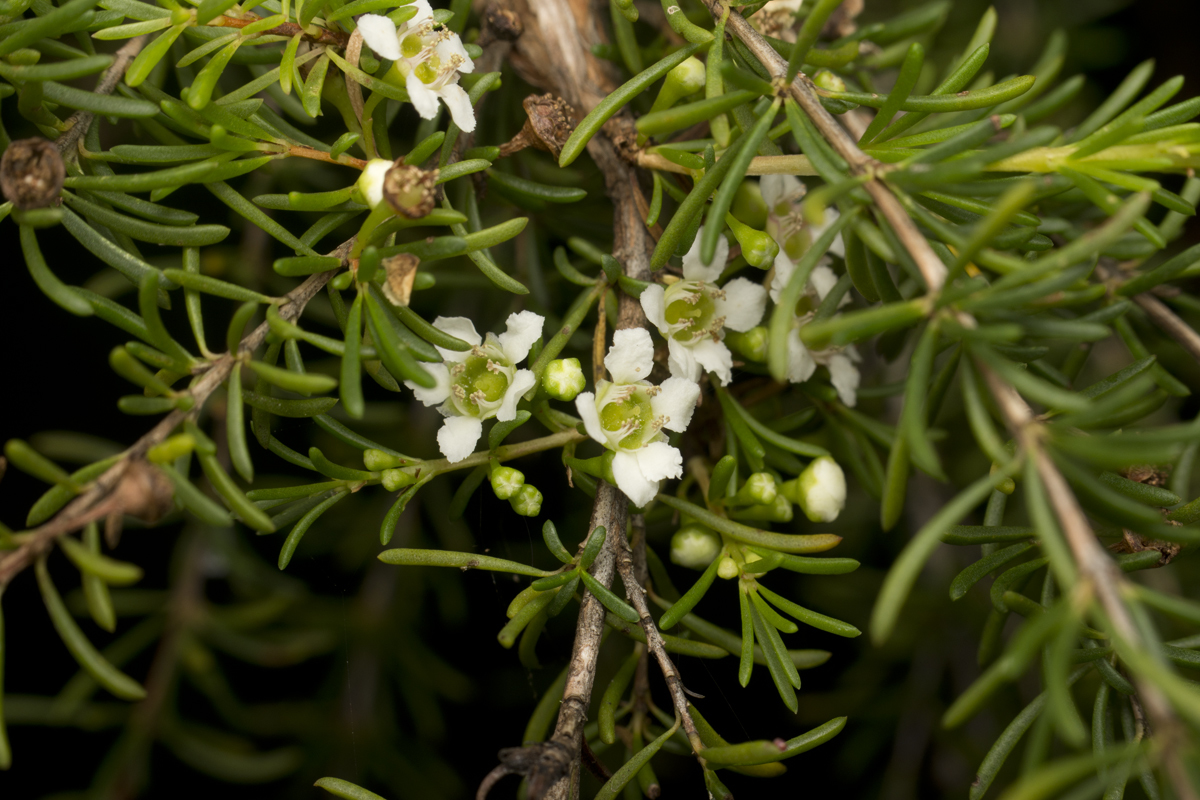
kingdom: Plantae
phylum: Tracheophyta
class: Magnoliopsida
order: Myrtales
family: Myrtaceae
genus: Chamelaucium
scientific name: Chamelaucium uncinatum
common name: Geraldton wax
